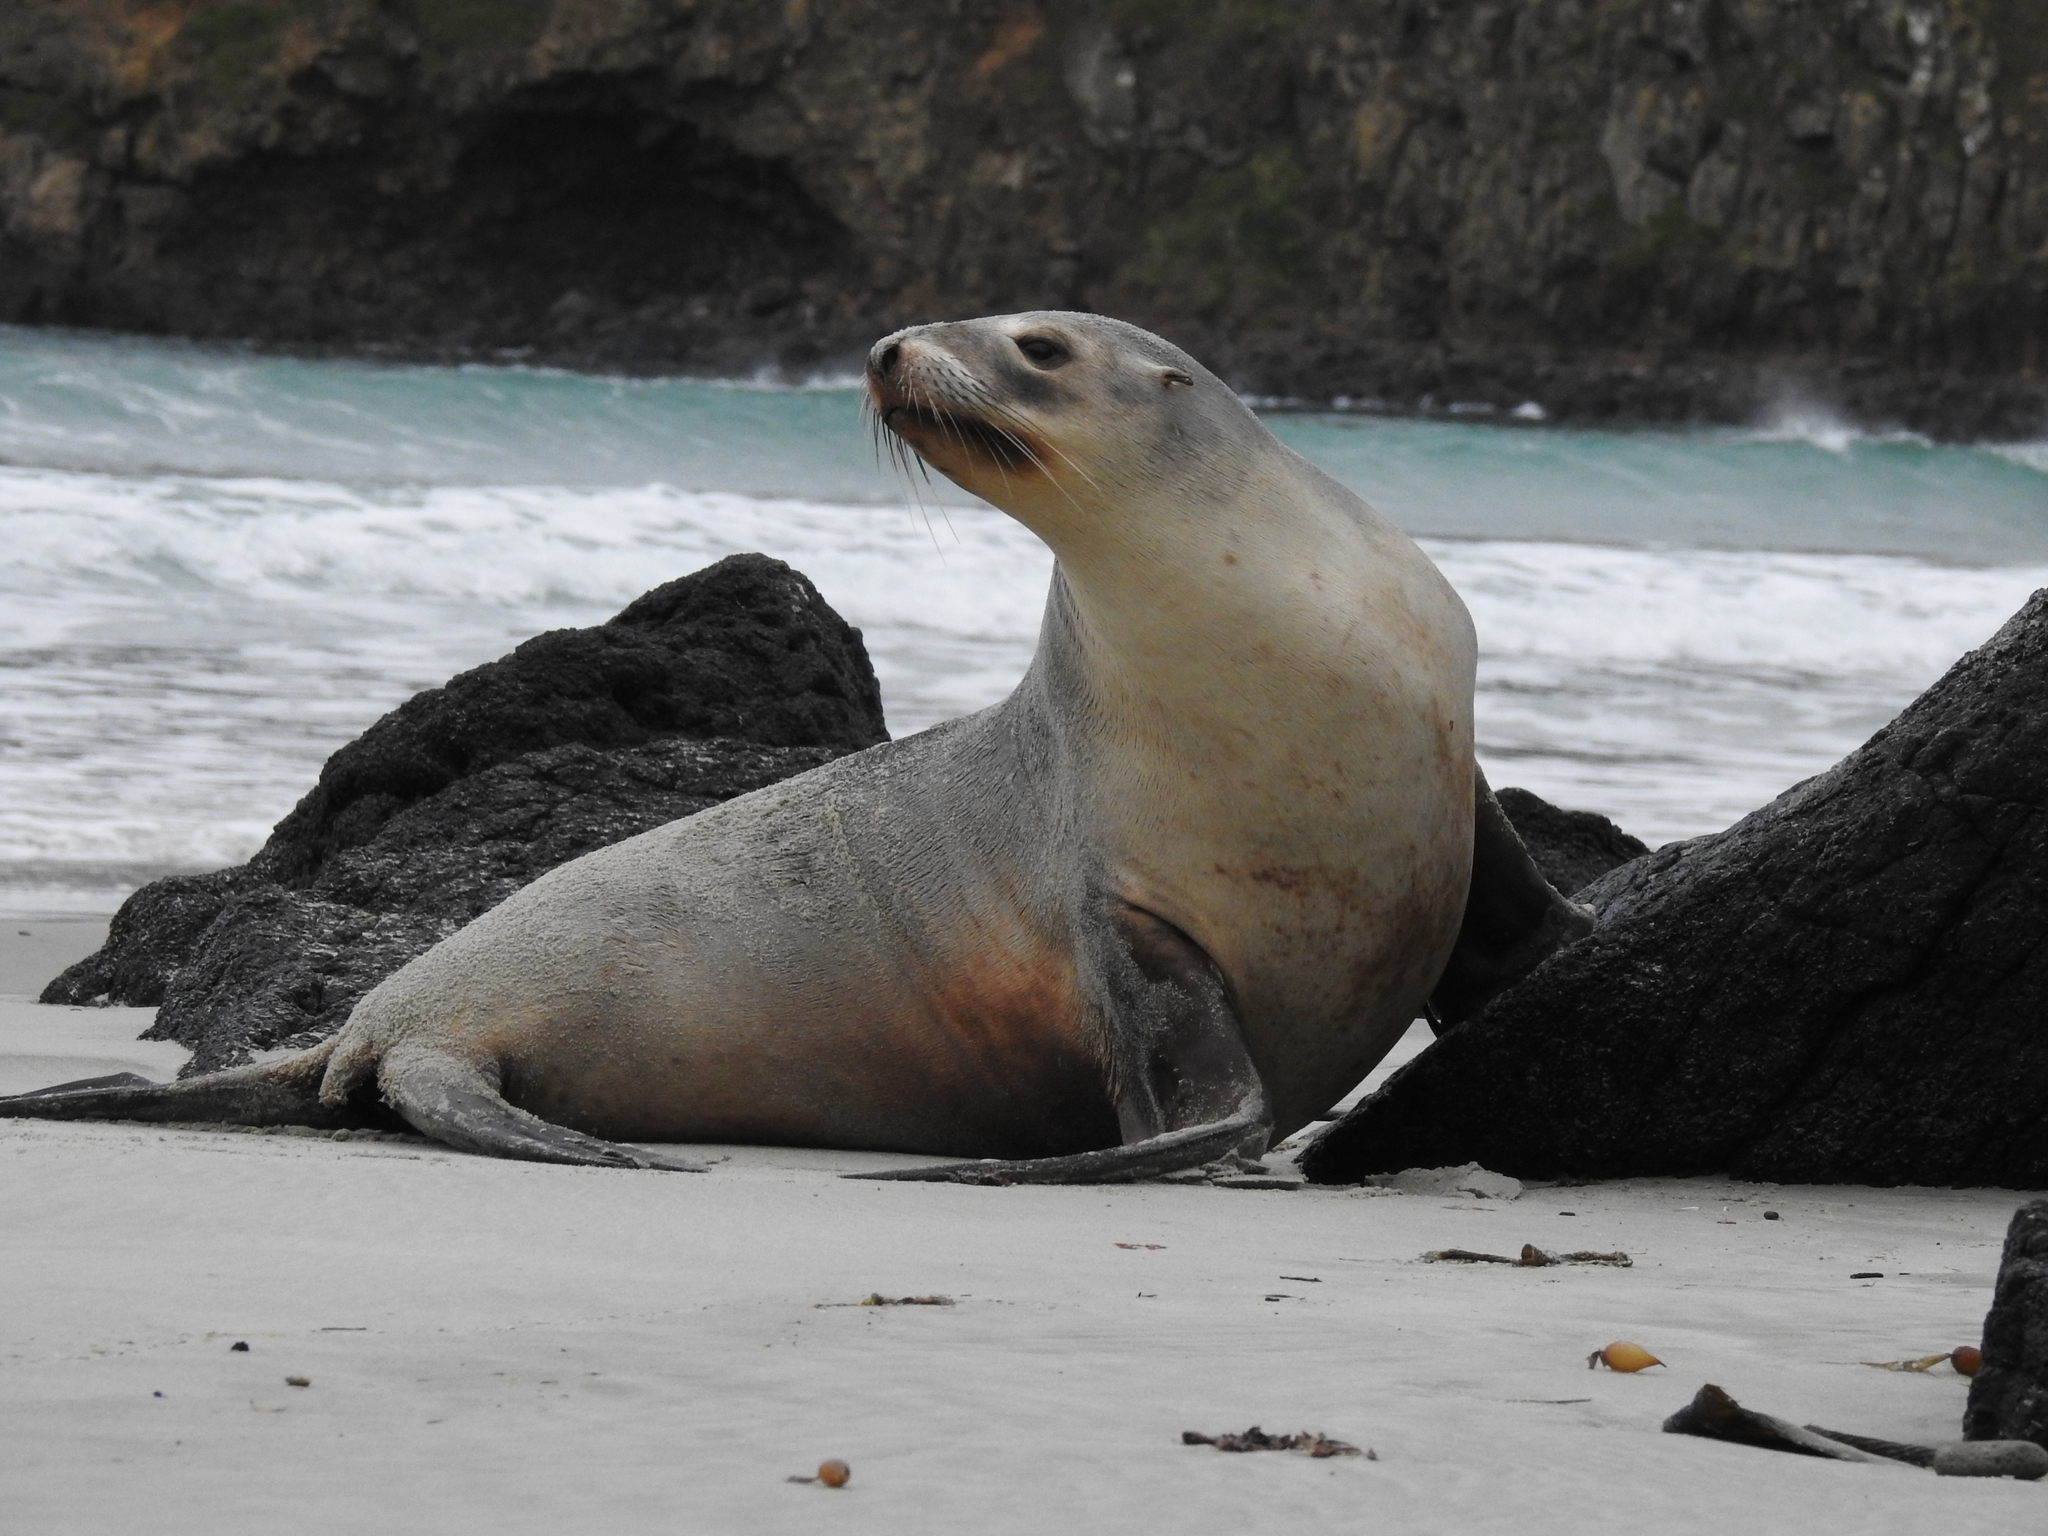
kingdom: Animalia
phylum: Chordata
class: Mammalia
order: Carnivora
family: Otariidae
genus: Phocarctos
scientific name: Phocarctos hookeri
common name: New zealand sea lion
